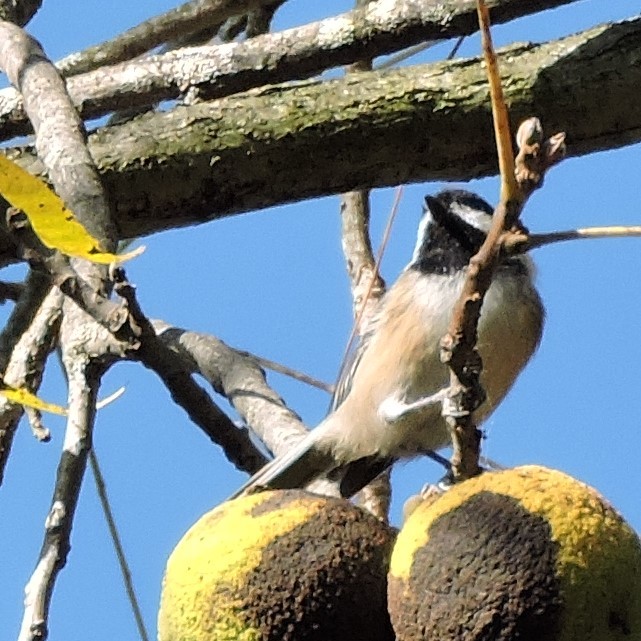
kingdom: Animalia
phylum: Chordata
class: Aves
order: Passeriformes
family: Paridae
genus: Poecile
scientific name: Poecile atricapillus
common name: Black-capped chickadee
